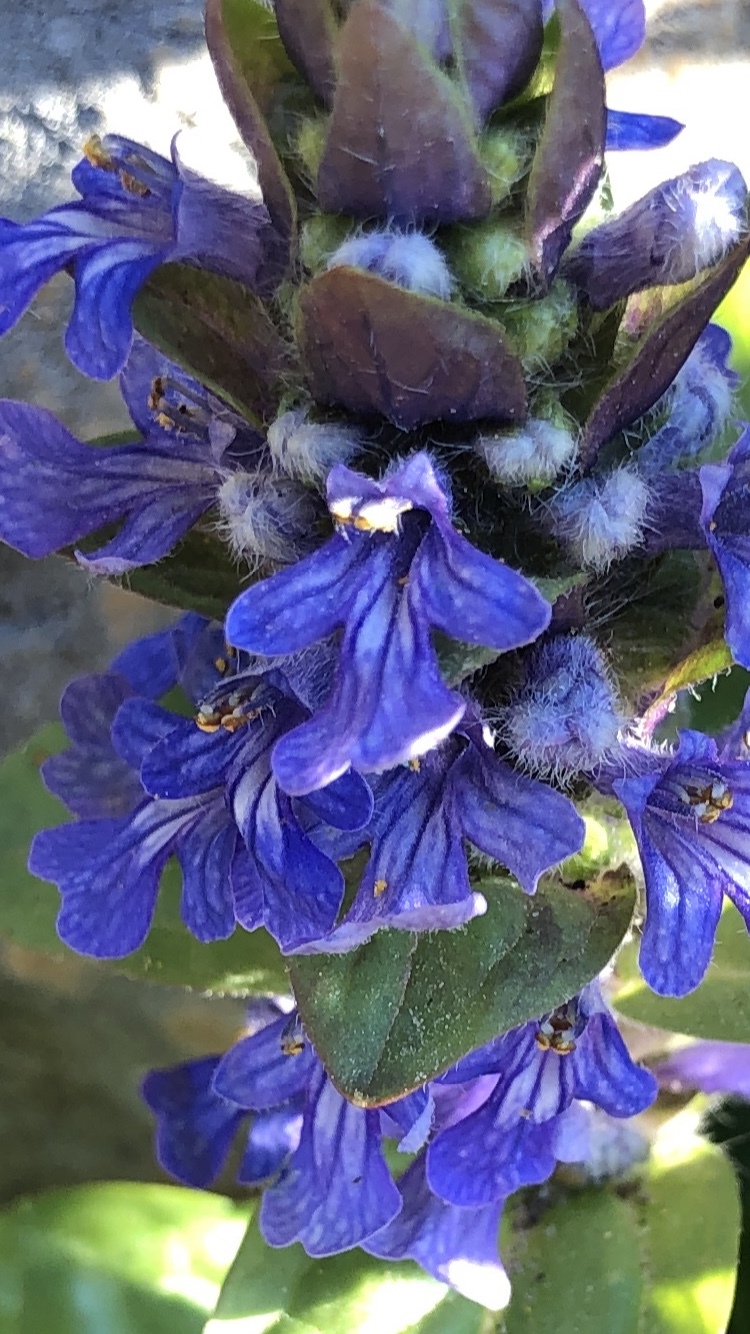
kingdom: Plantae
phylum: Tracheophyta
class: Magnoliopsida
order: Lamiales
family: Lamiaceae
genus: Ajuga
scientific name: Ajuga reptans
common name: Bugle
